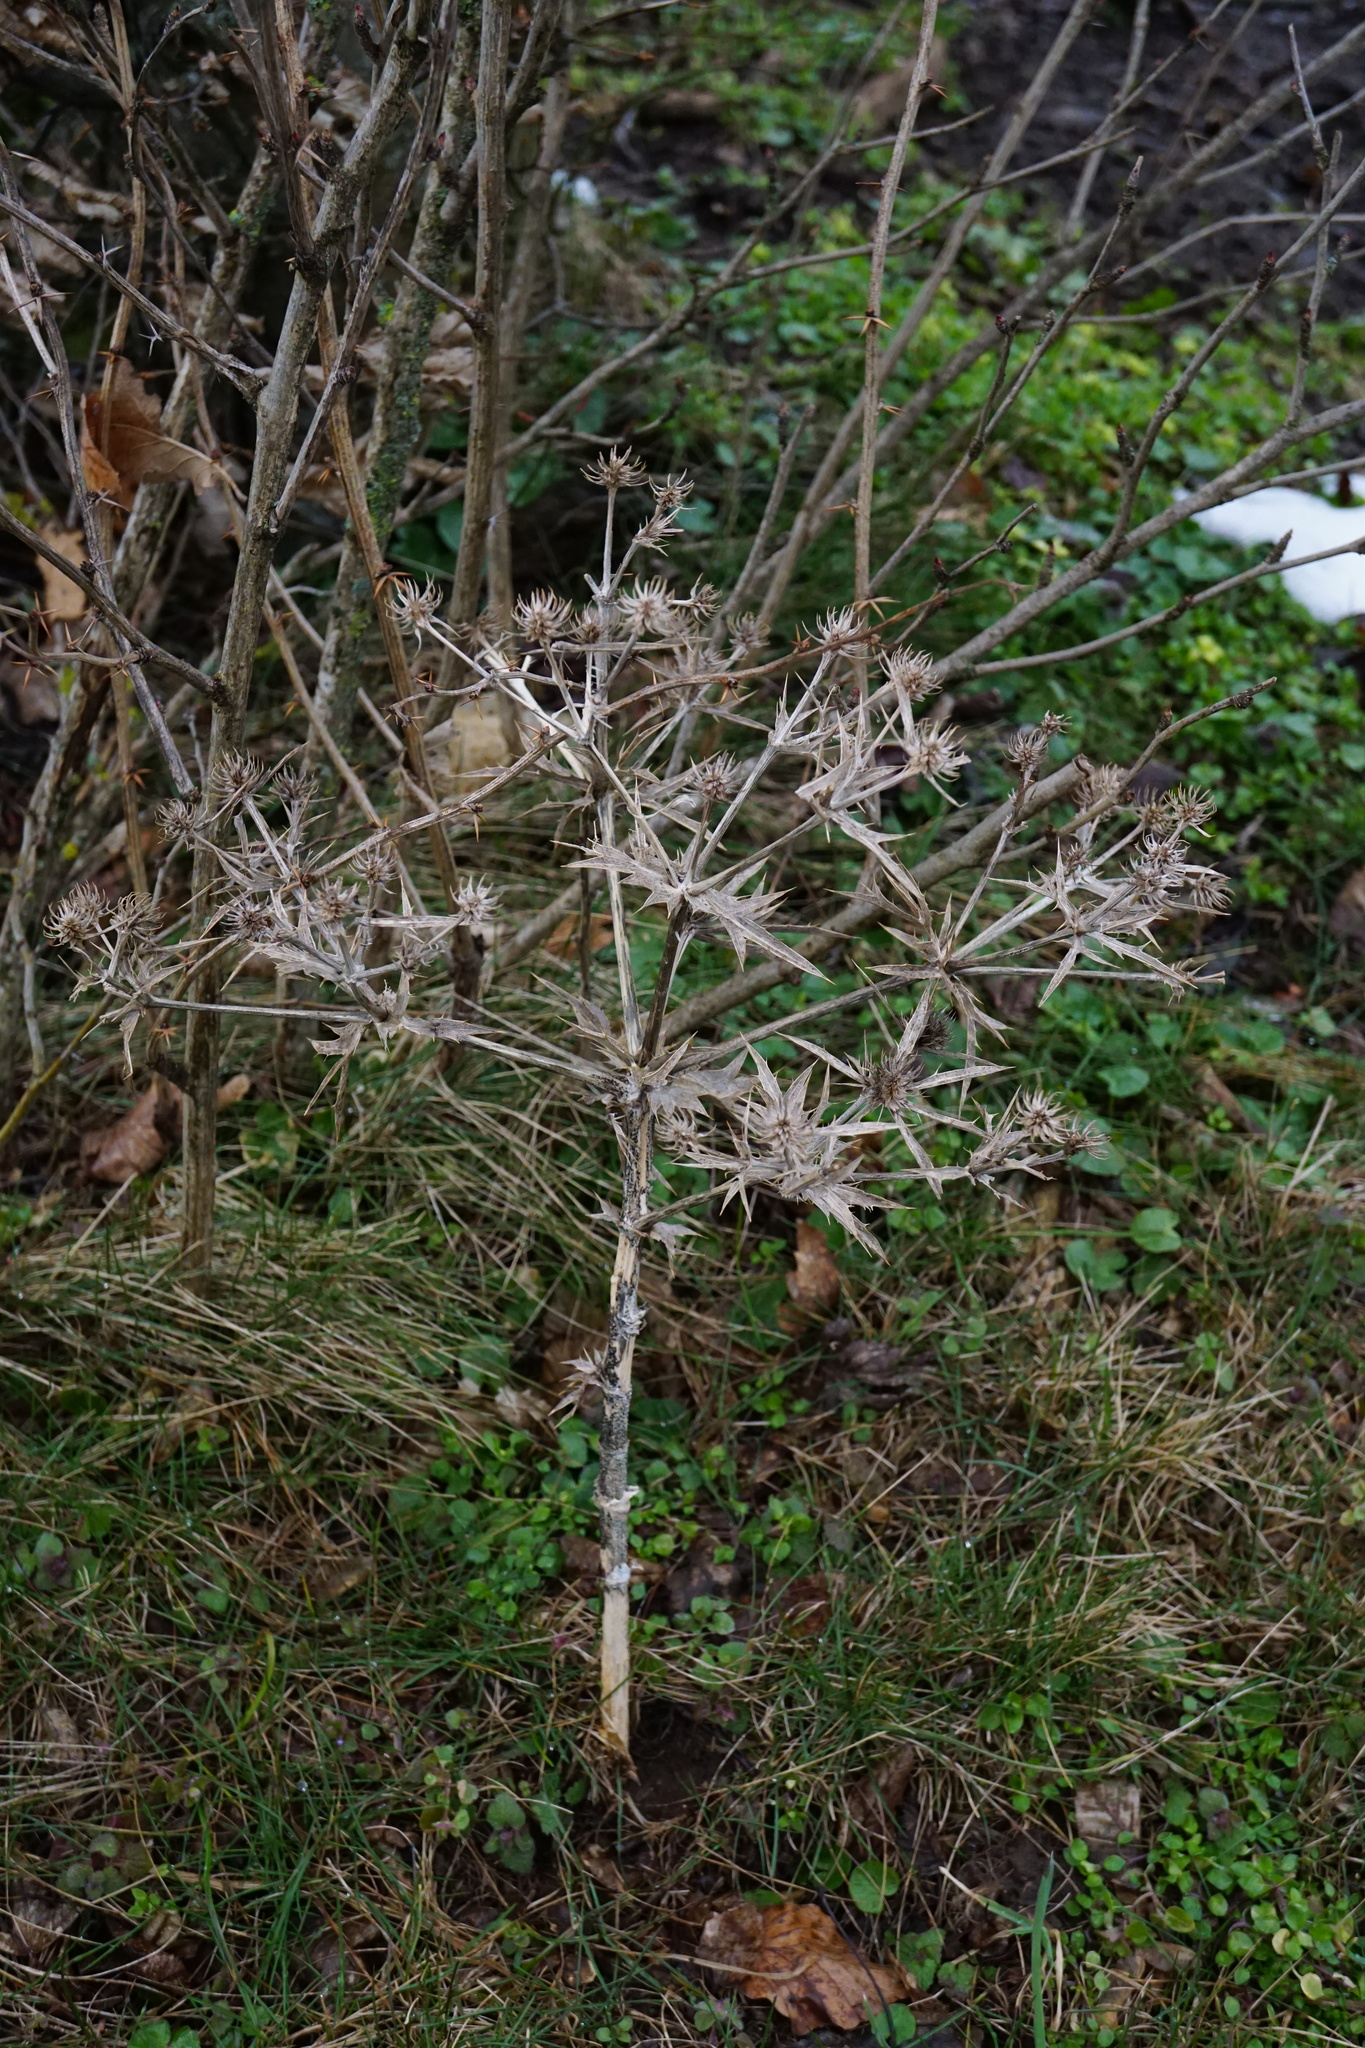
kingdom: Plantae
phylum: Tracheophyta
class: Magnoliopsida
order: Apiales
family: Apiaceae
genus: Eryngium
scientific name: Eryngium campestre
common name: Field eryngo
